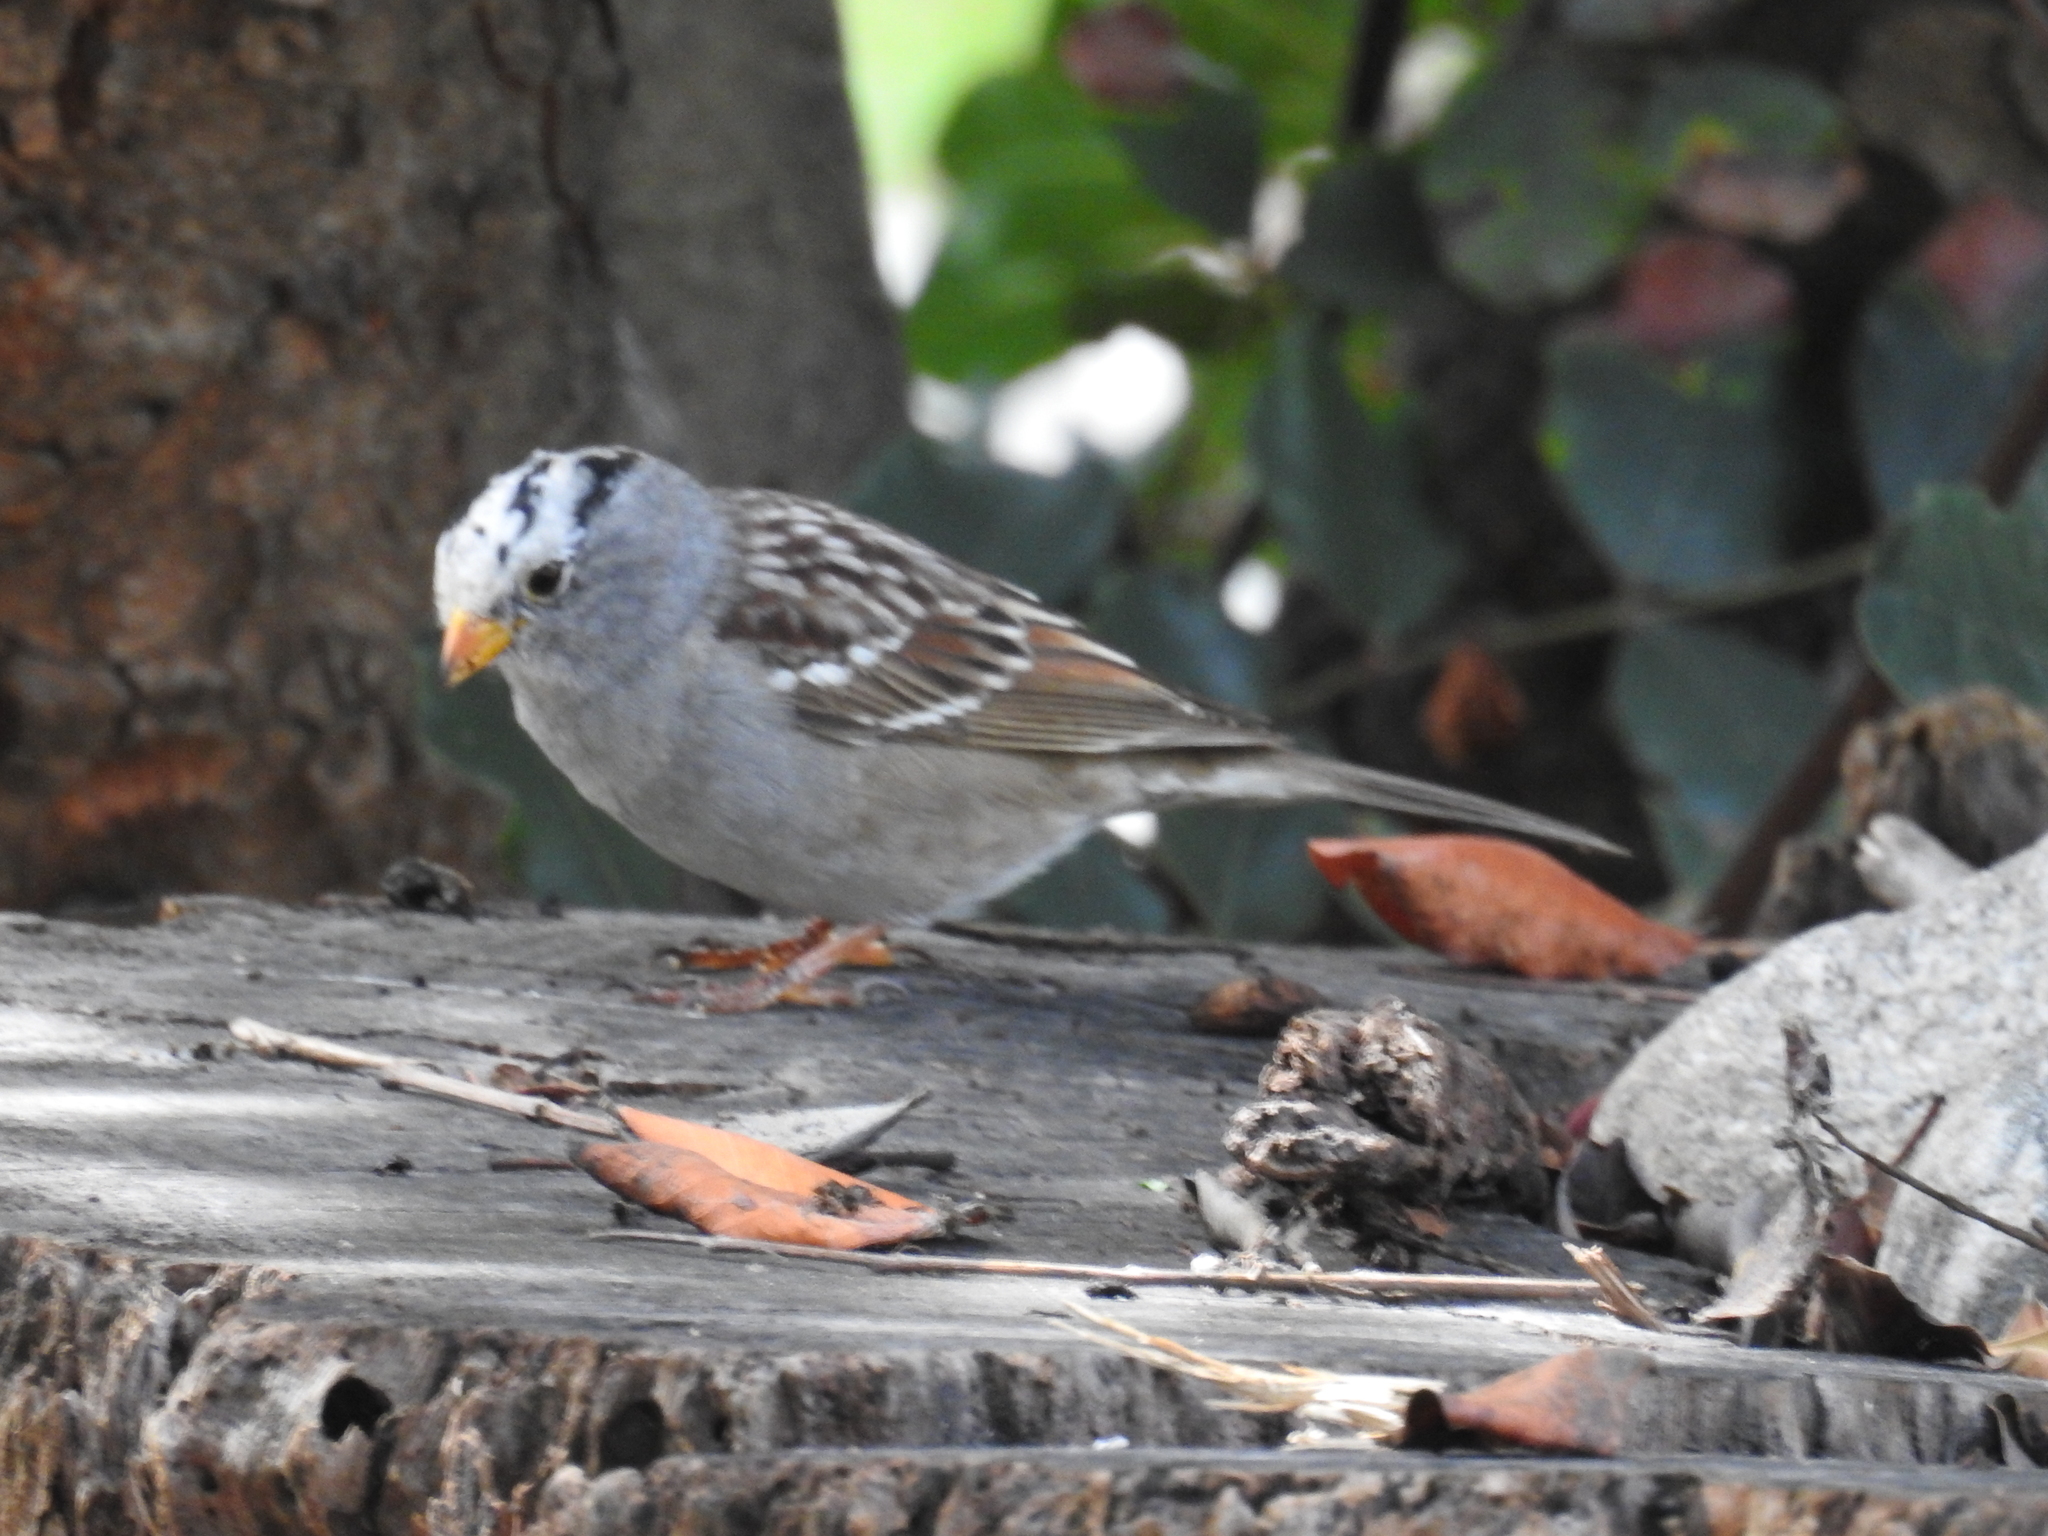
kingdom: Animalia
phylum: Chordata
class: Aves
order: Passeriformes
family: Passerellidae
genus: Zonotrichia
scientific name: Zonotrichia leucophrys
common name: White-crowned sparrow
